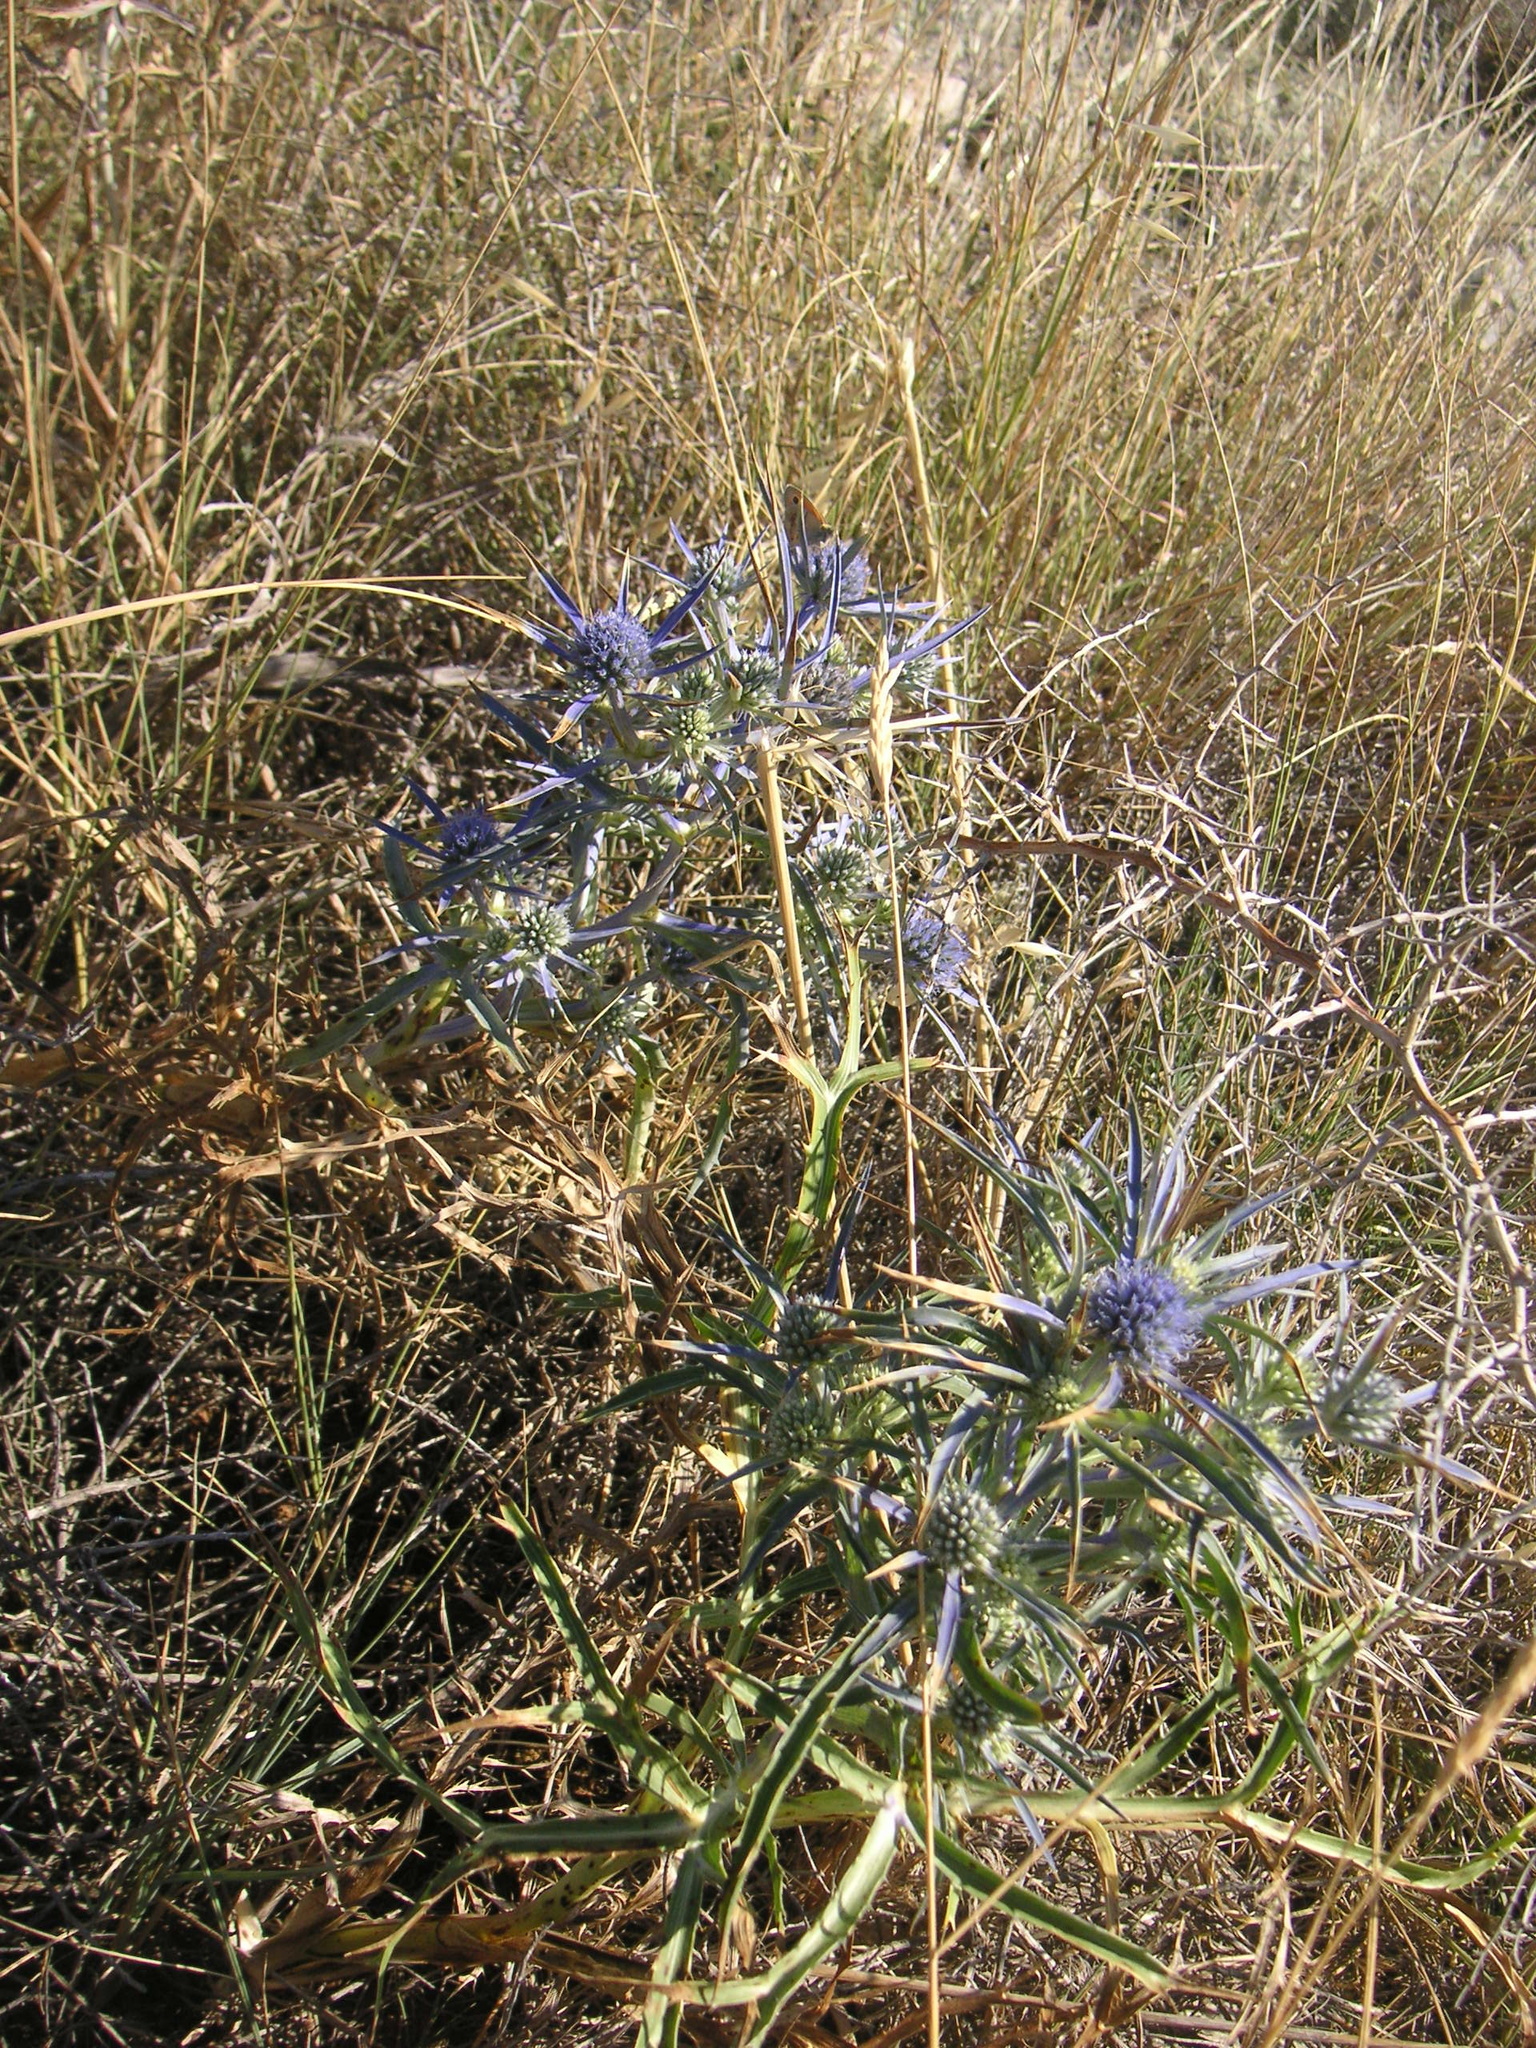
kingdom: Plantae
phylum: Tracheophyta
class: Magnoliopsida
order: Apiales
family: Apiaceae
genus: Eryngium
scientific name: Eryngium amethystinum
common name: Amethyst eryngo
